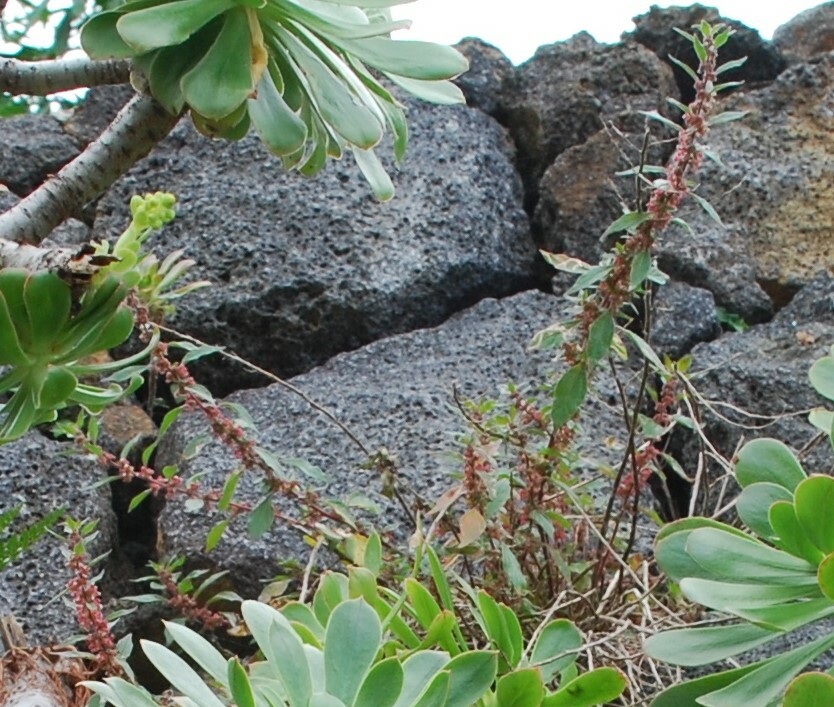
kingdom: Plantae
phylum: Tracheophyta
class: Magnoliopsida
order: Rosales
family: Urticaceae
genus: Parietaria
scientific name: Parietaria judaica
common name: Pellitory-of-the-wall
